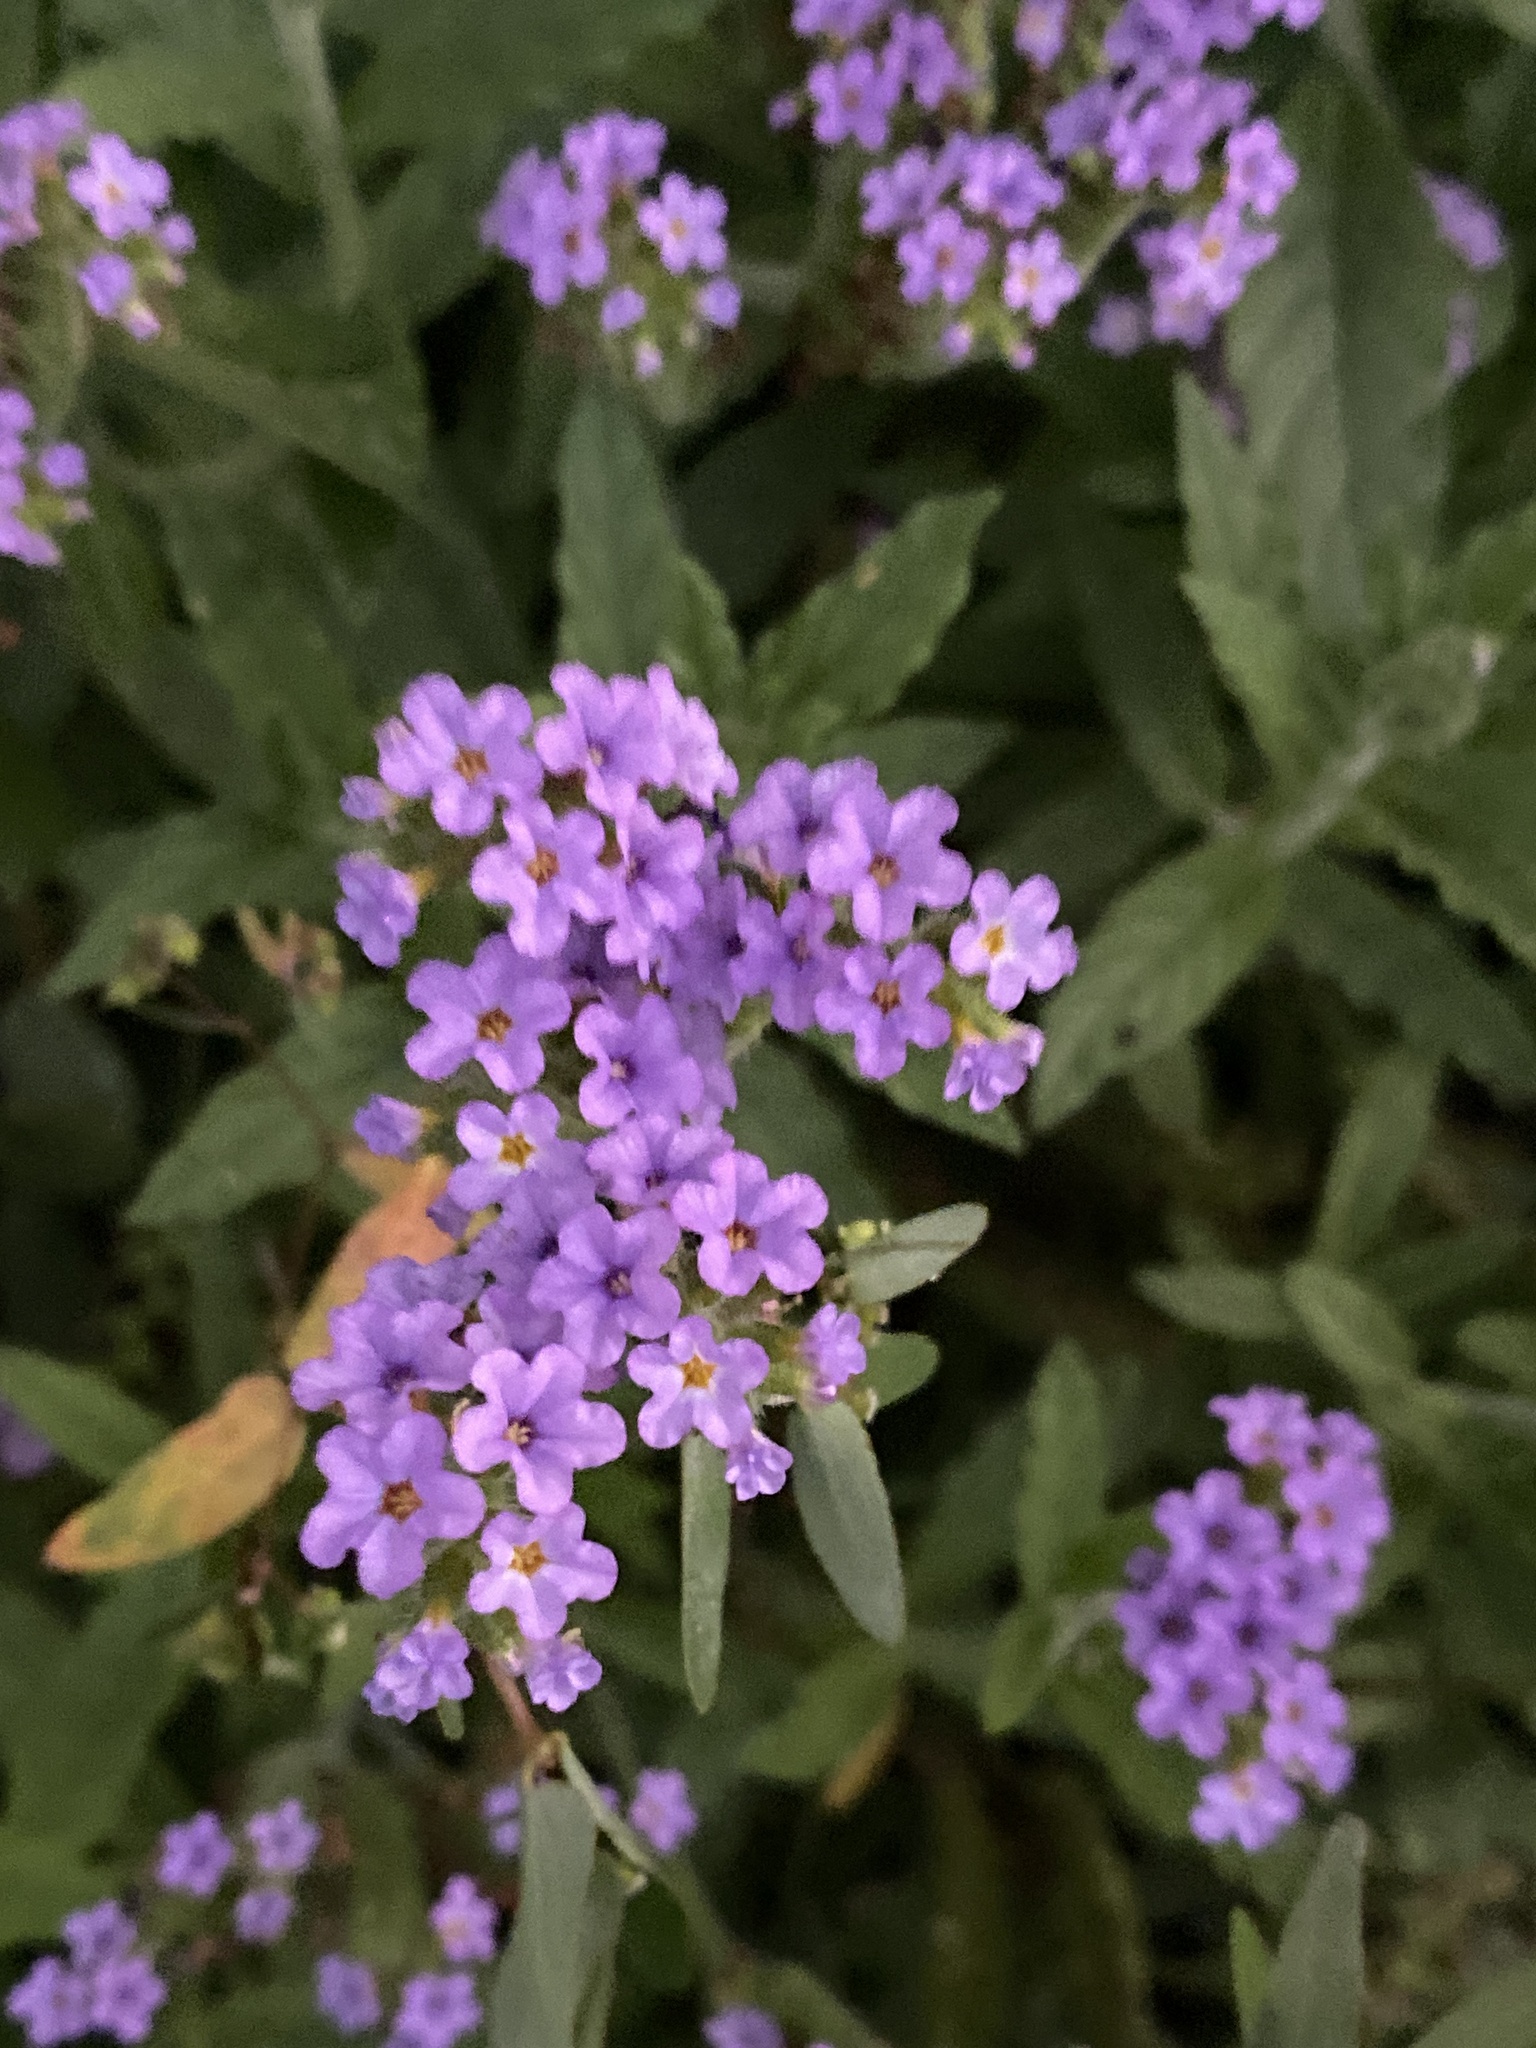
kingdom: Plantae
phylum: Tracheophyta
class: Magnoliopsida
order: Boraginales
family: Heliotropiaceae
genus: Heliotropium
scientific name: Heliotropium amplexicaule
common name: Clasping heliotrope
